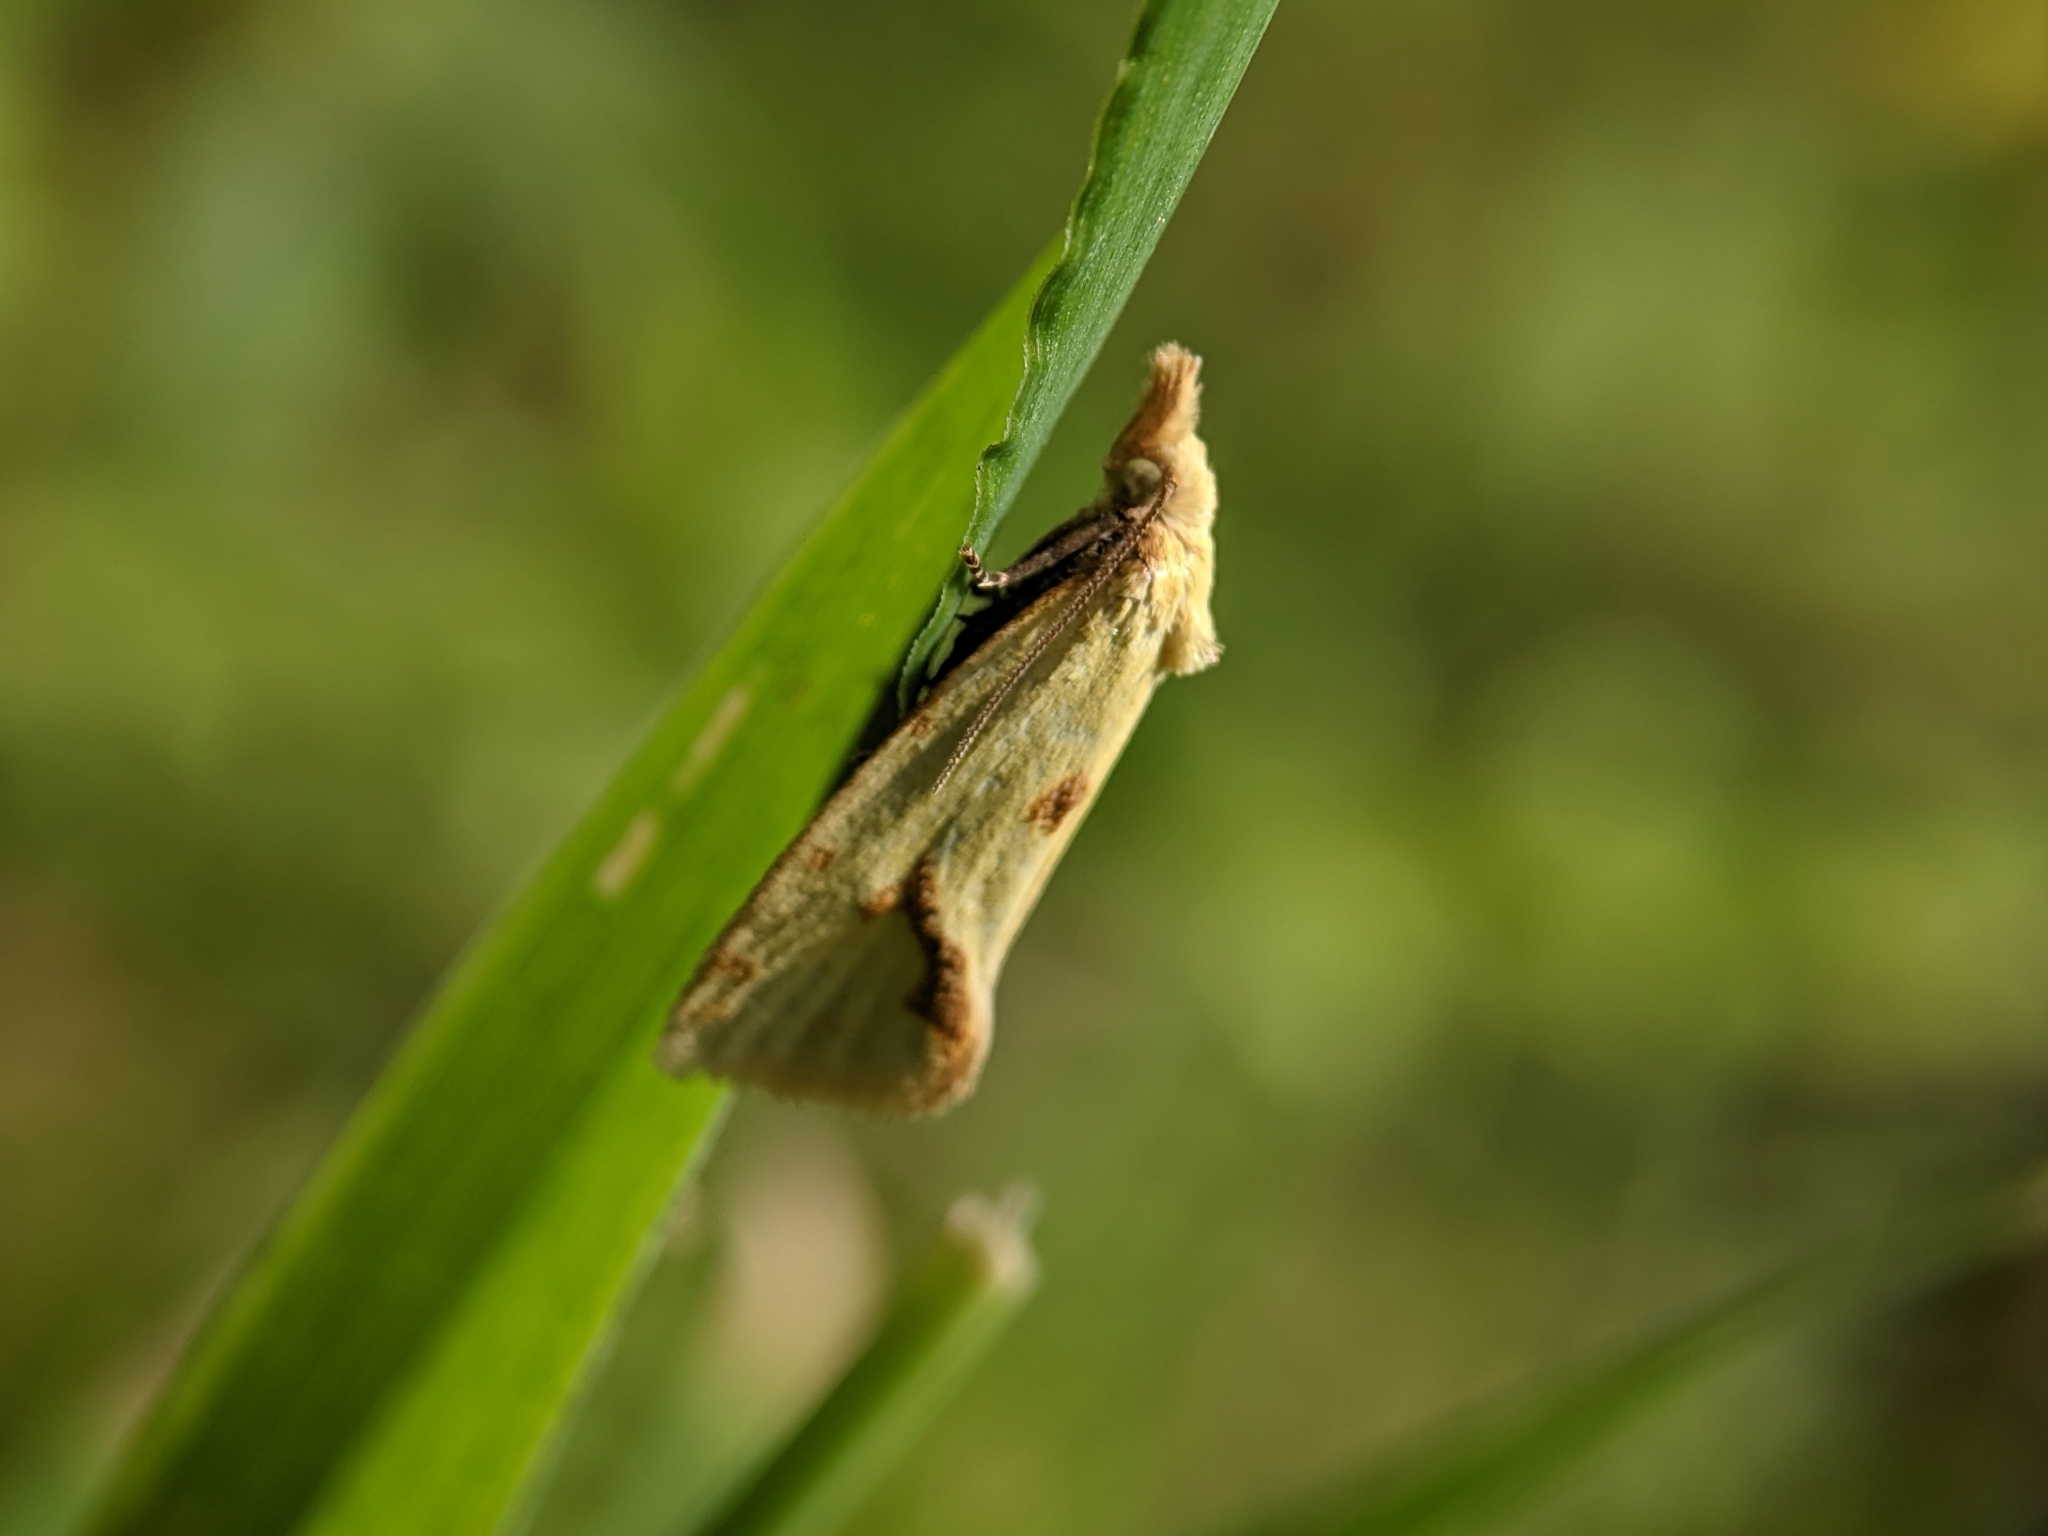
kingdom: Animalia
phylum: Arthropoda
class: Insecta
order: Lepidoptera
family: Tortricidae
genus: Agapeta
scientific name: Agapeta hamana
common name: Common yellow conch
